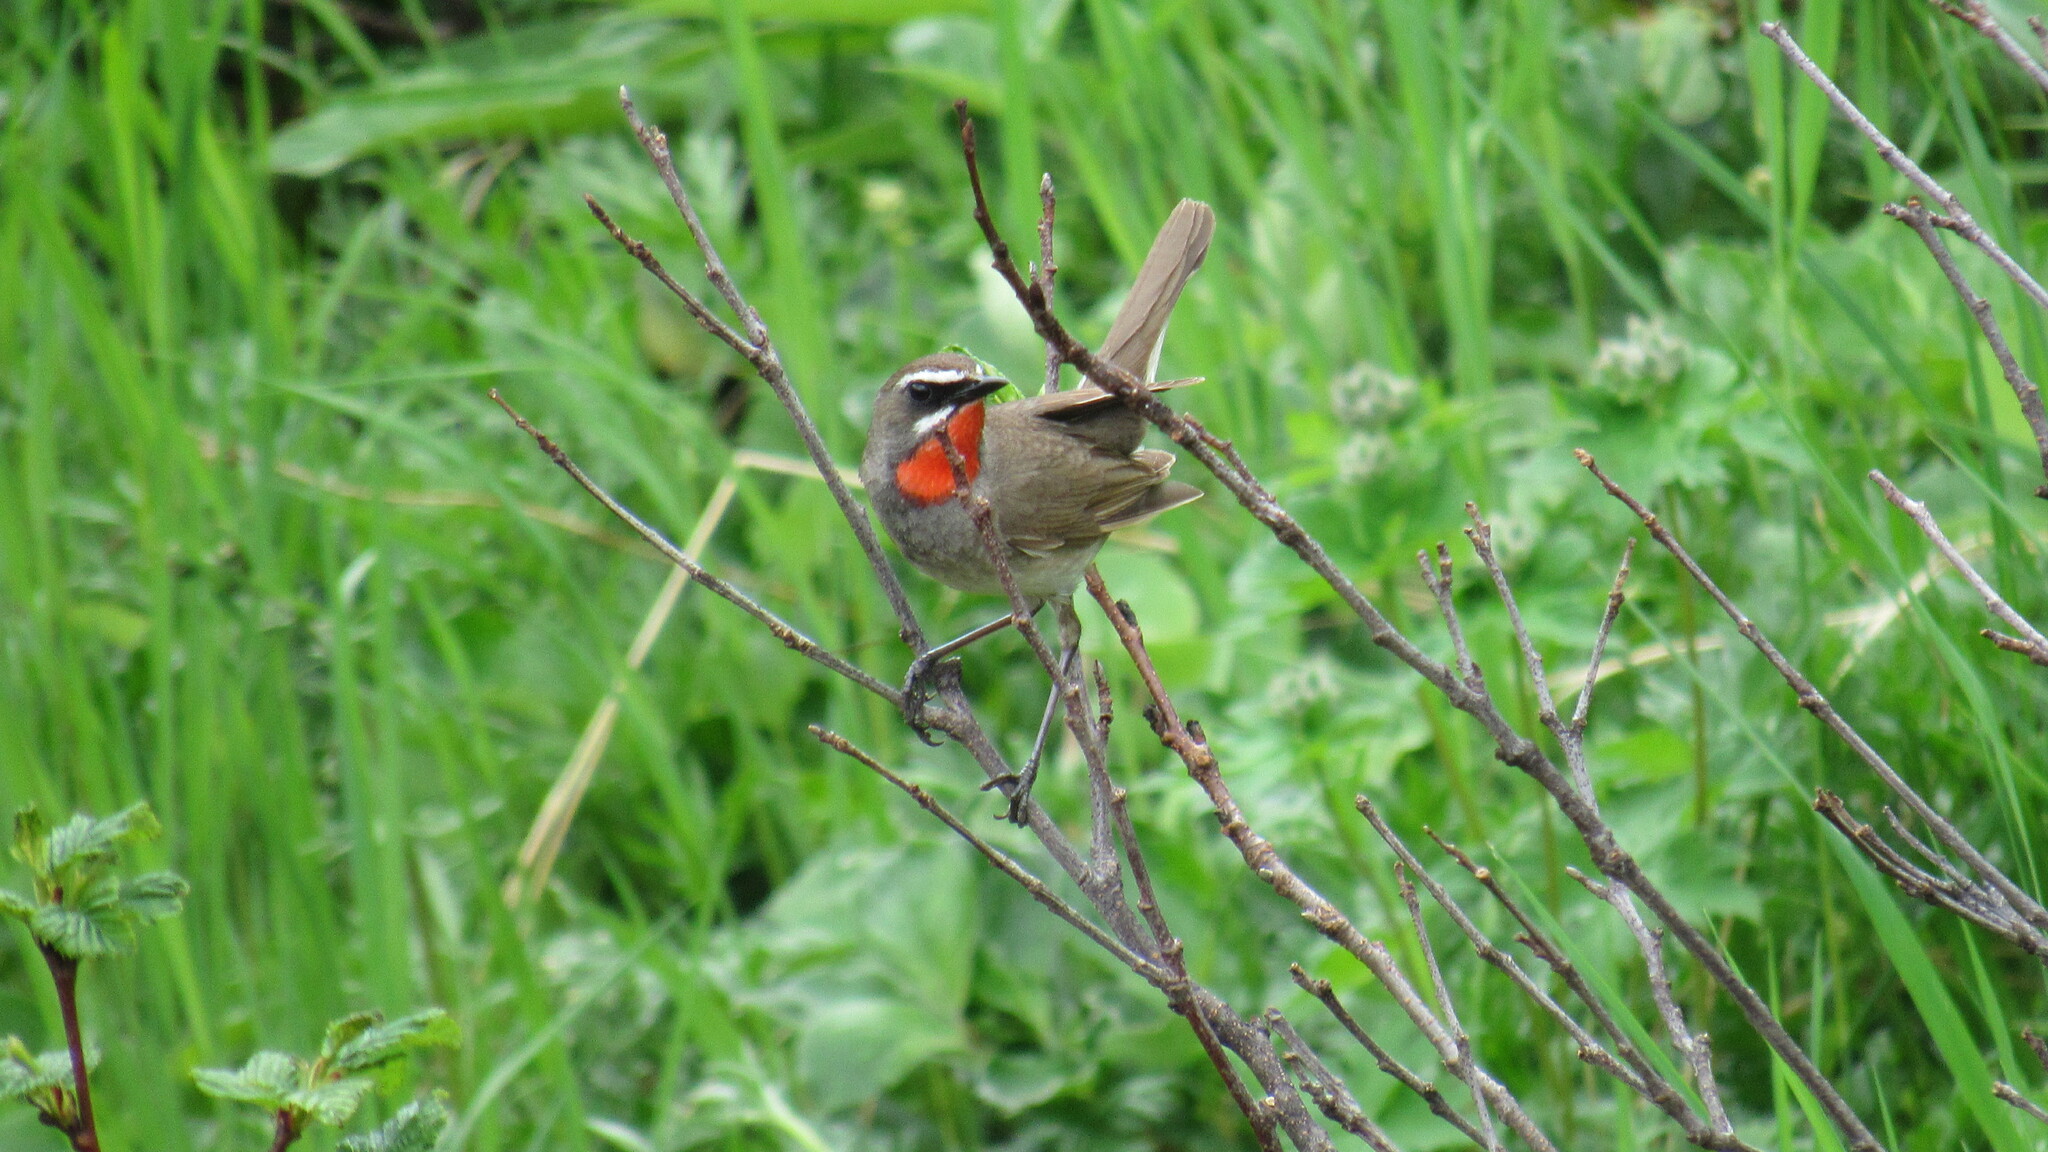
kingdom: Animalia
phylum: Chordata
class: Aves
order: Passeriformes
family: Muscicapidae
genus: Luscinia
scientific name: Luscinia calliope
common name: Siberian rubythroat
